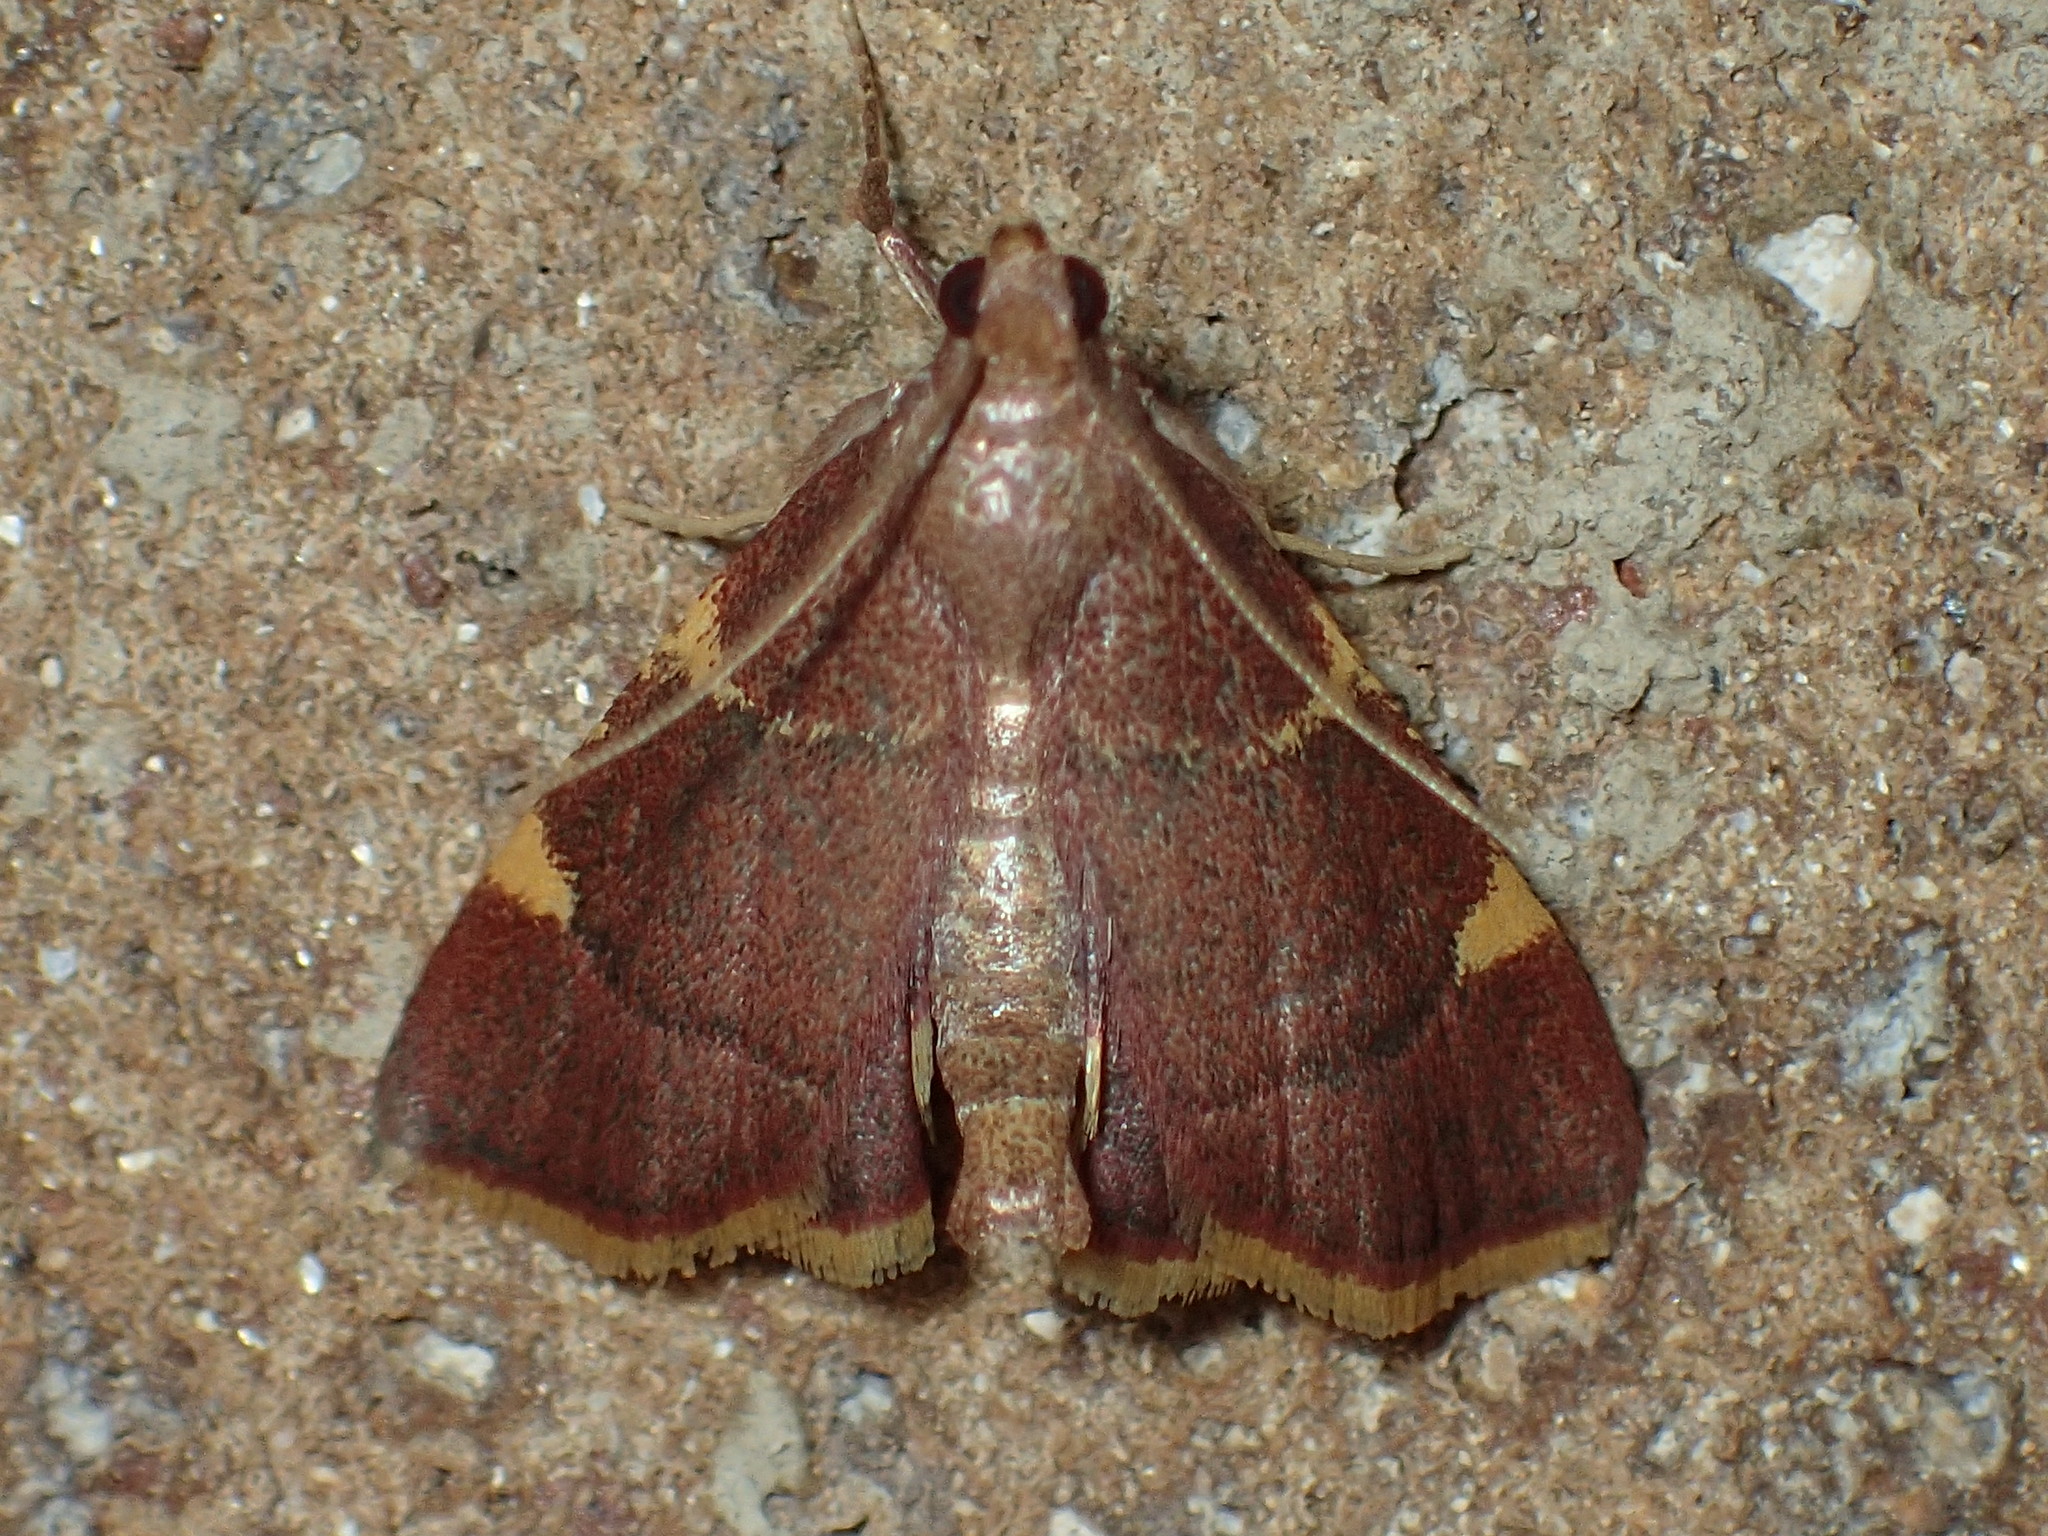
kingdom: Animalia
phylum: Arthropoda
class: Insecta
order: Lepidoptera
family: Pyralidae
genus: Hypsopygia
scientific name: Hypsopygia olinalis
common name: Yellow-fringed dolichomia moth
